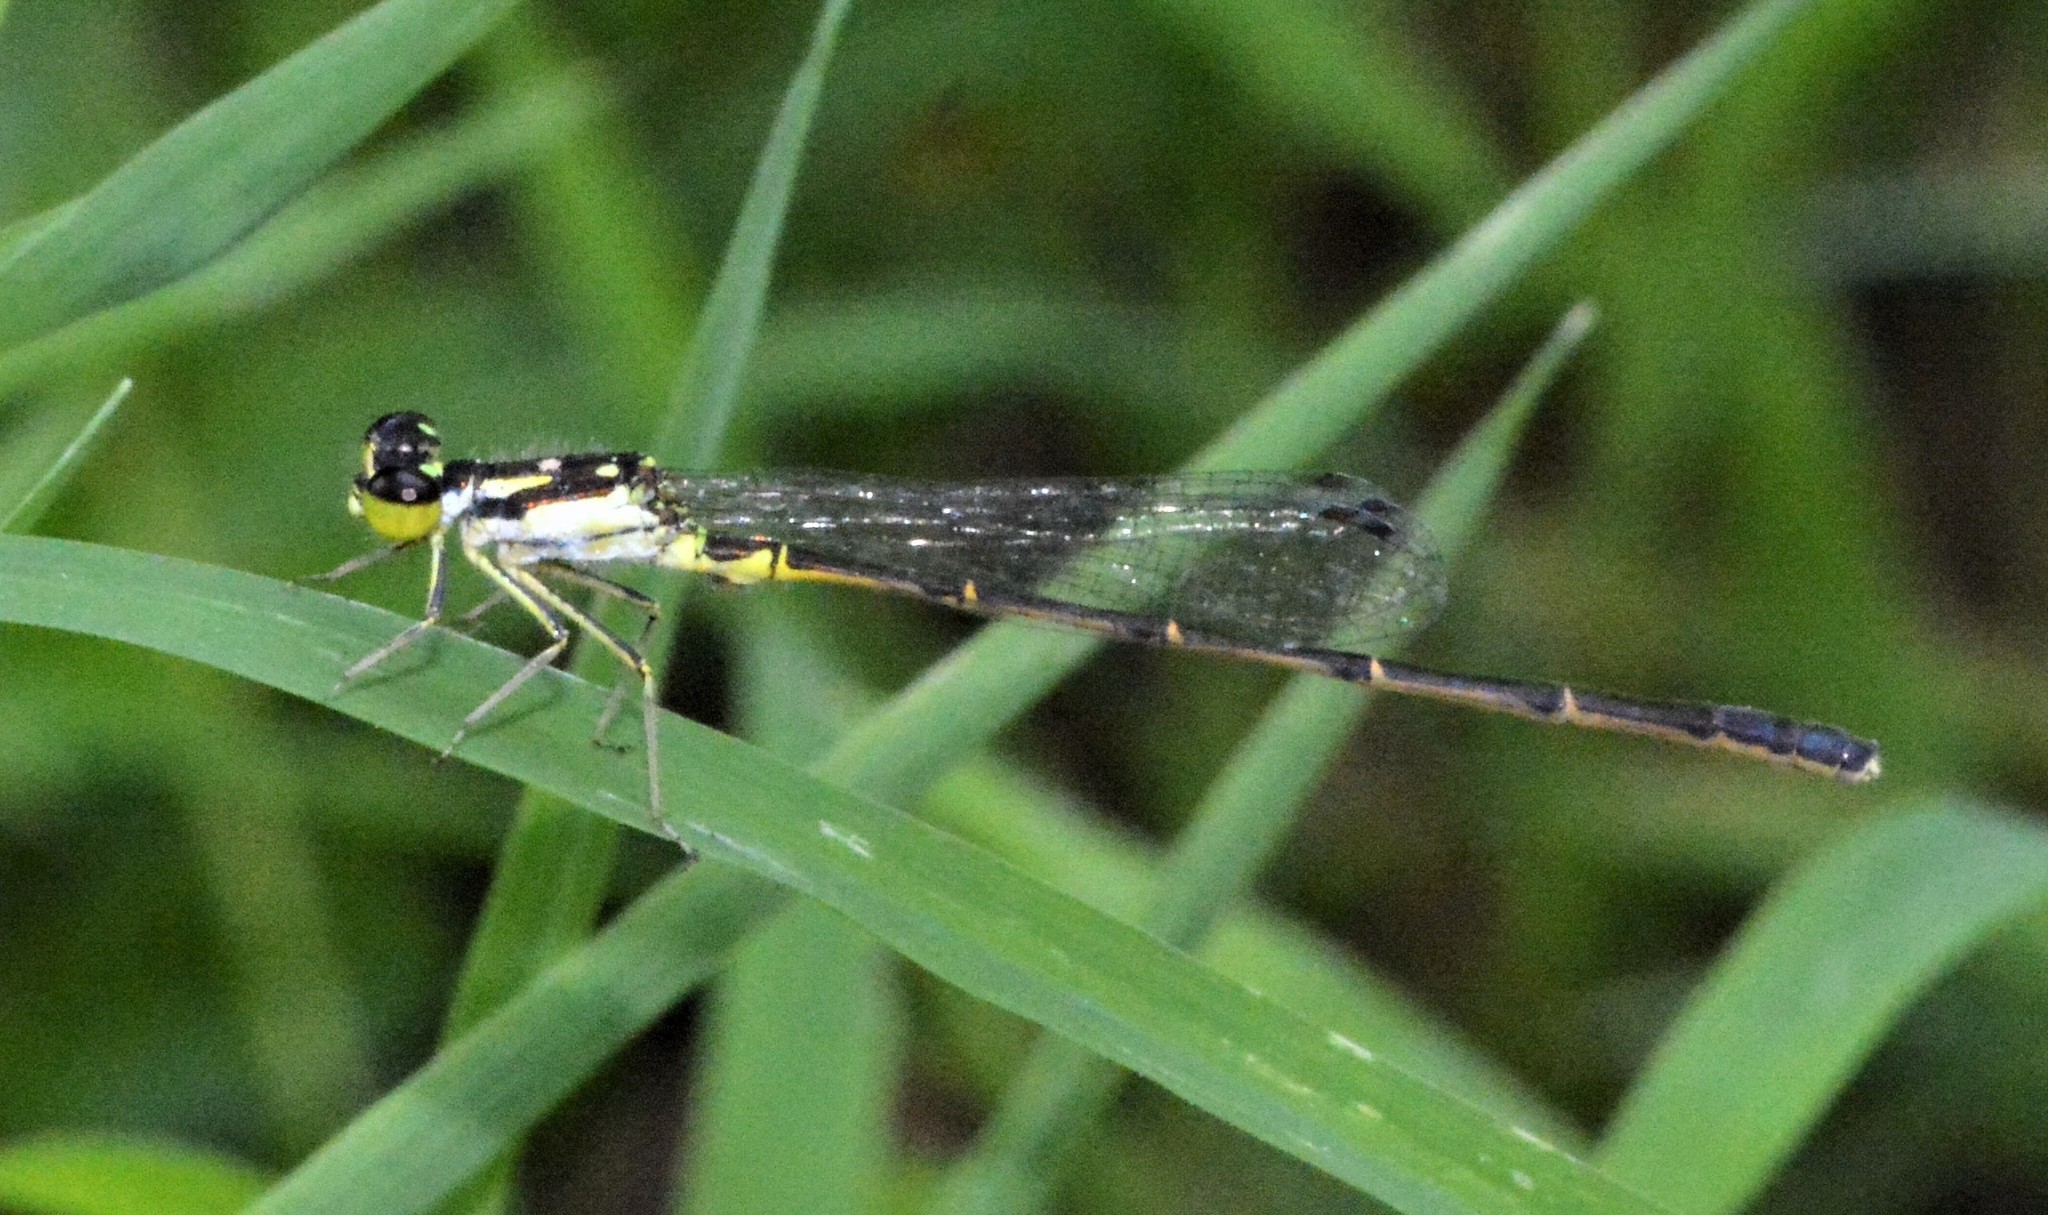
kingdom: Animalia
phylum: Arthropoda
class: Insecta
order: Odonata
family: Coenagrionidae
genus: Ischnura
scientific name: Ischnura posita
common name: Fragile forktail
